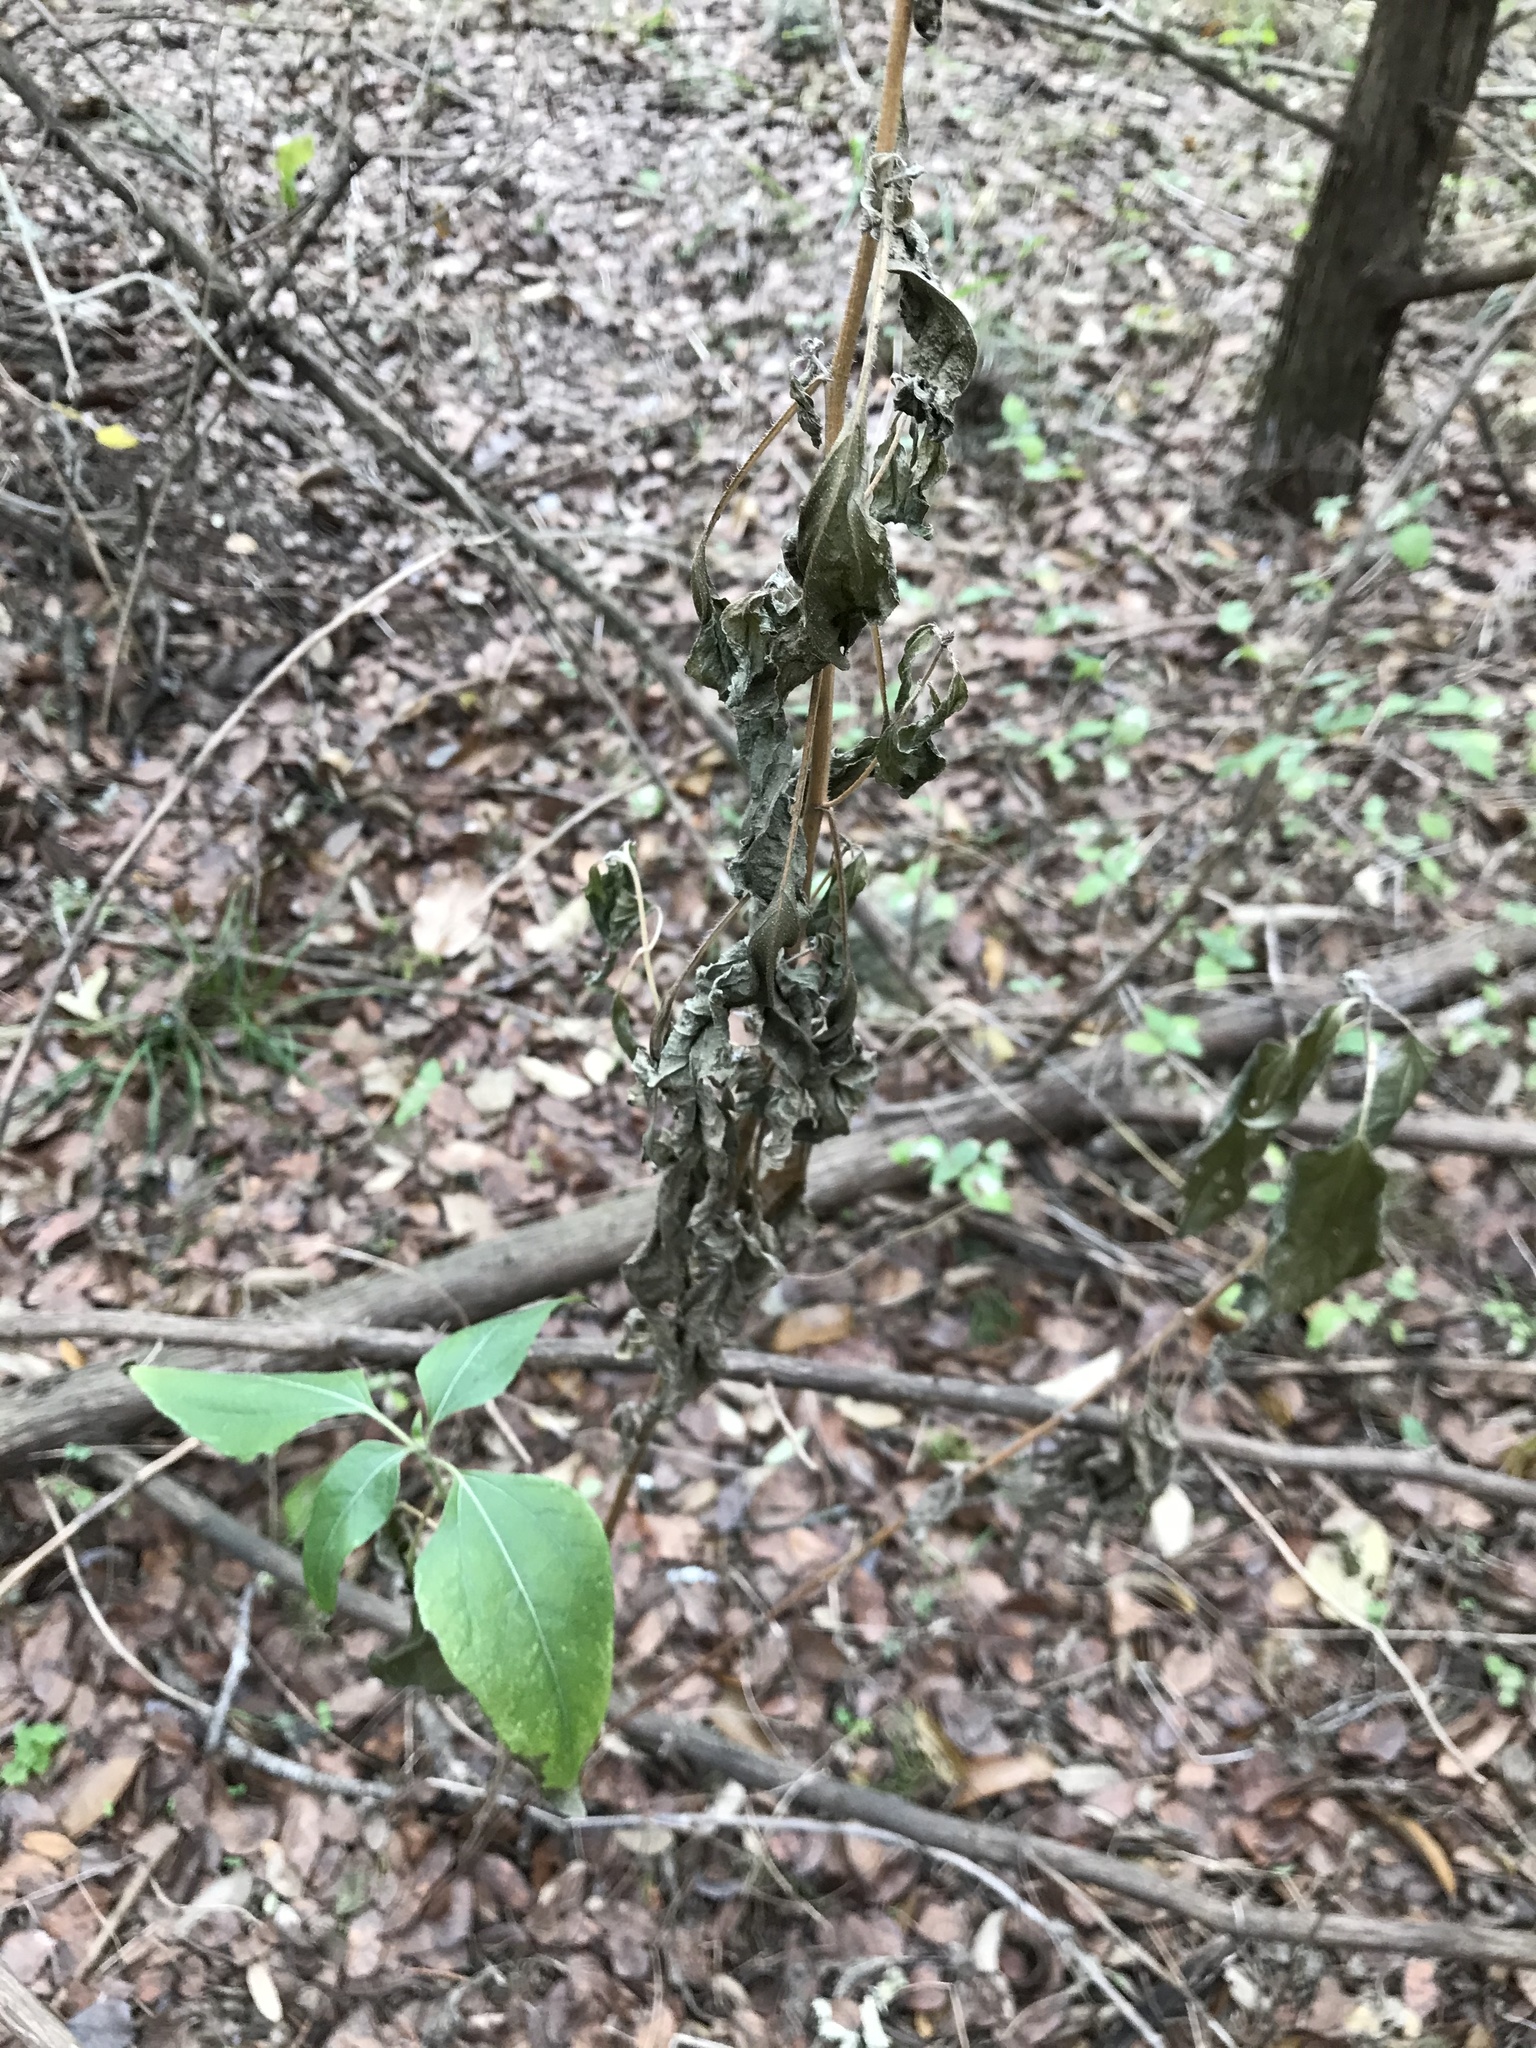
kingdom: Plantae
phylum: Tracheophyta
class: Magnoliopsida
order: Asterales
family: Asteraceae
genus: Viguiera
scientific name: Viguiera dentata
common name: Toothleaf
